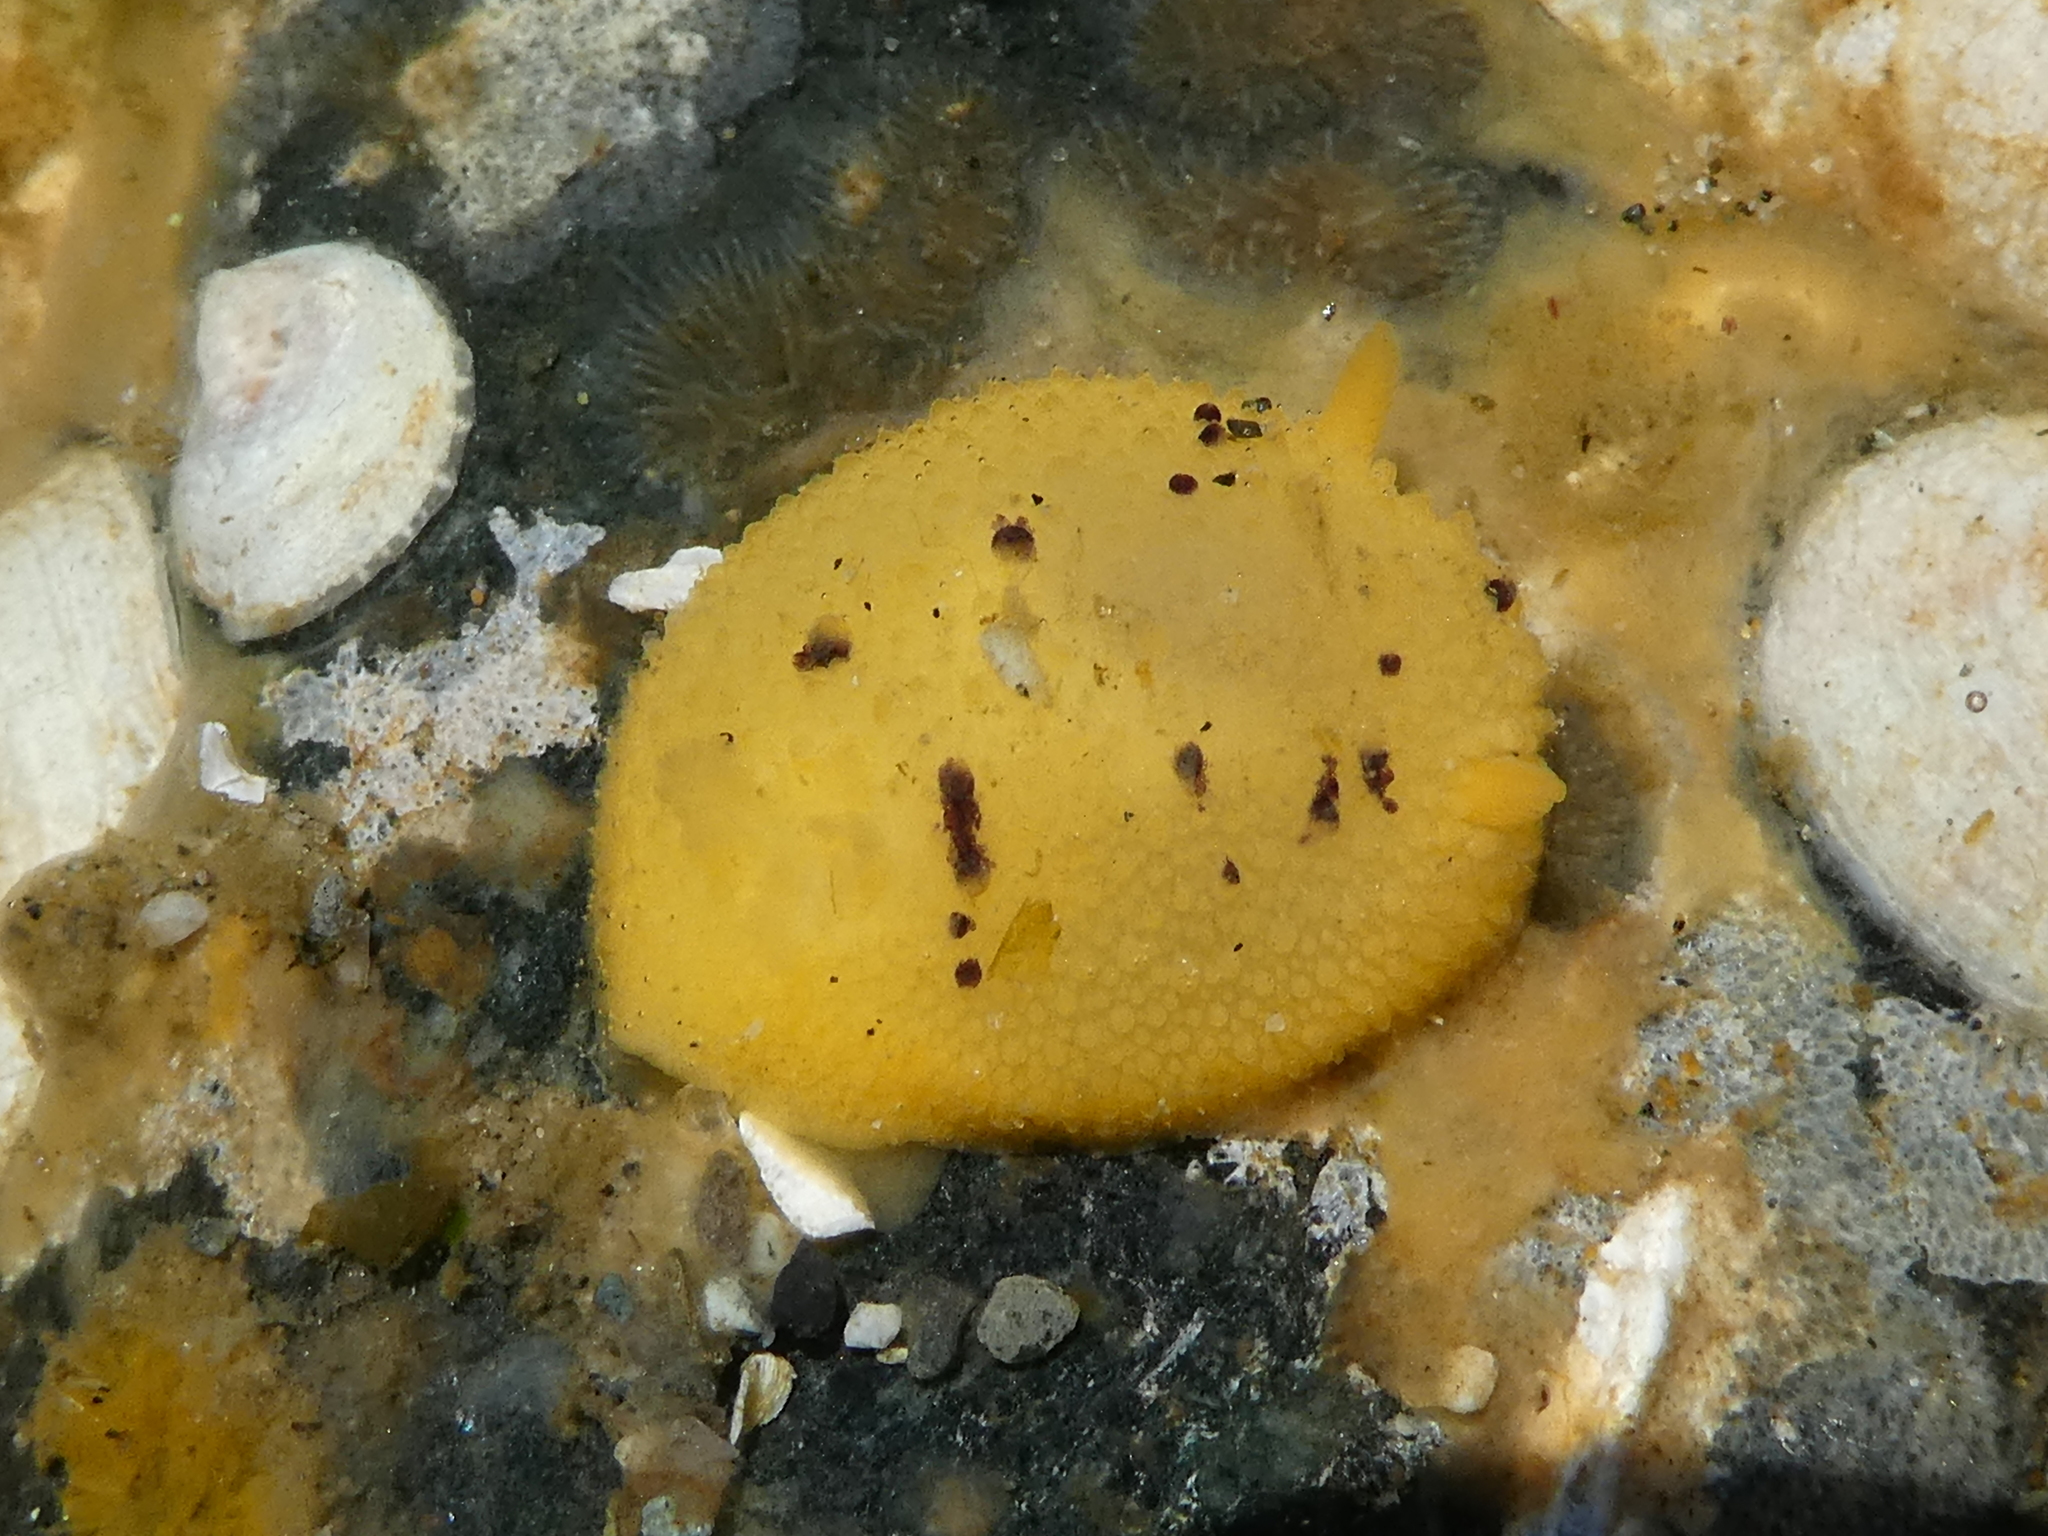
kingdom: Animalia
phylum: Mollusca
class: Gastropoda
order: Nudibranchia
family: Dorididae
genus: Doris
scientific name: Doris montereyensis
